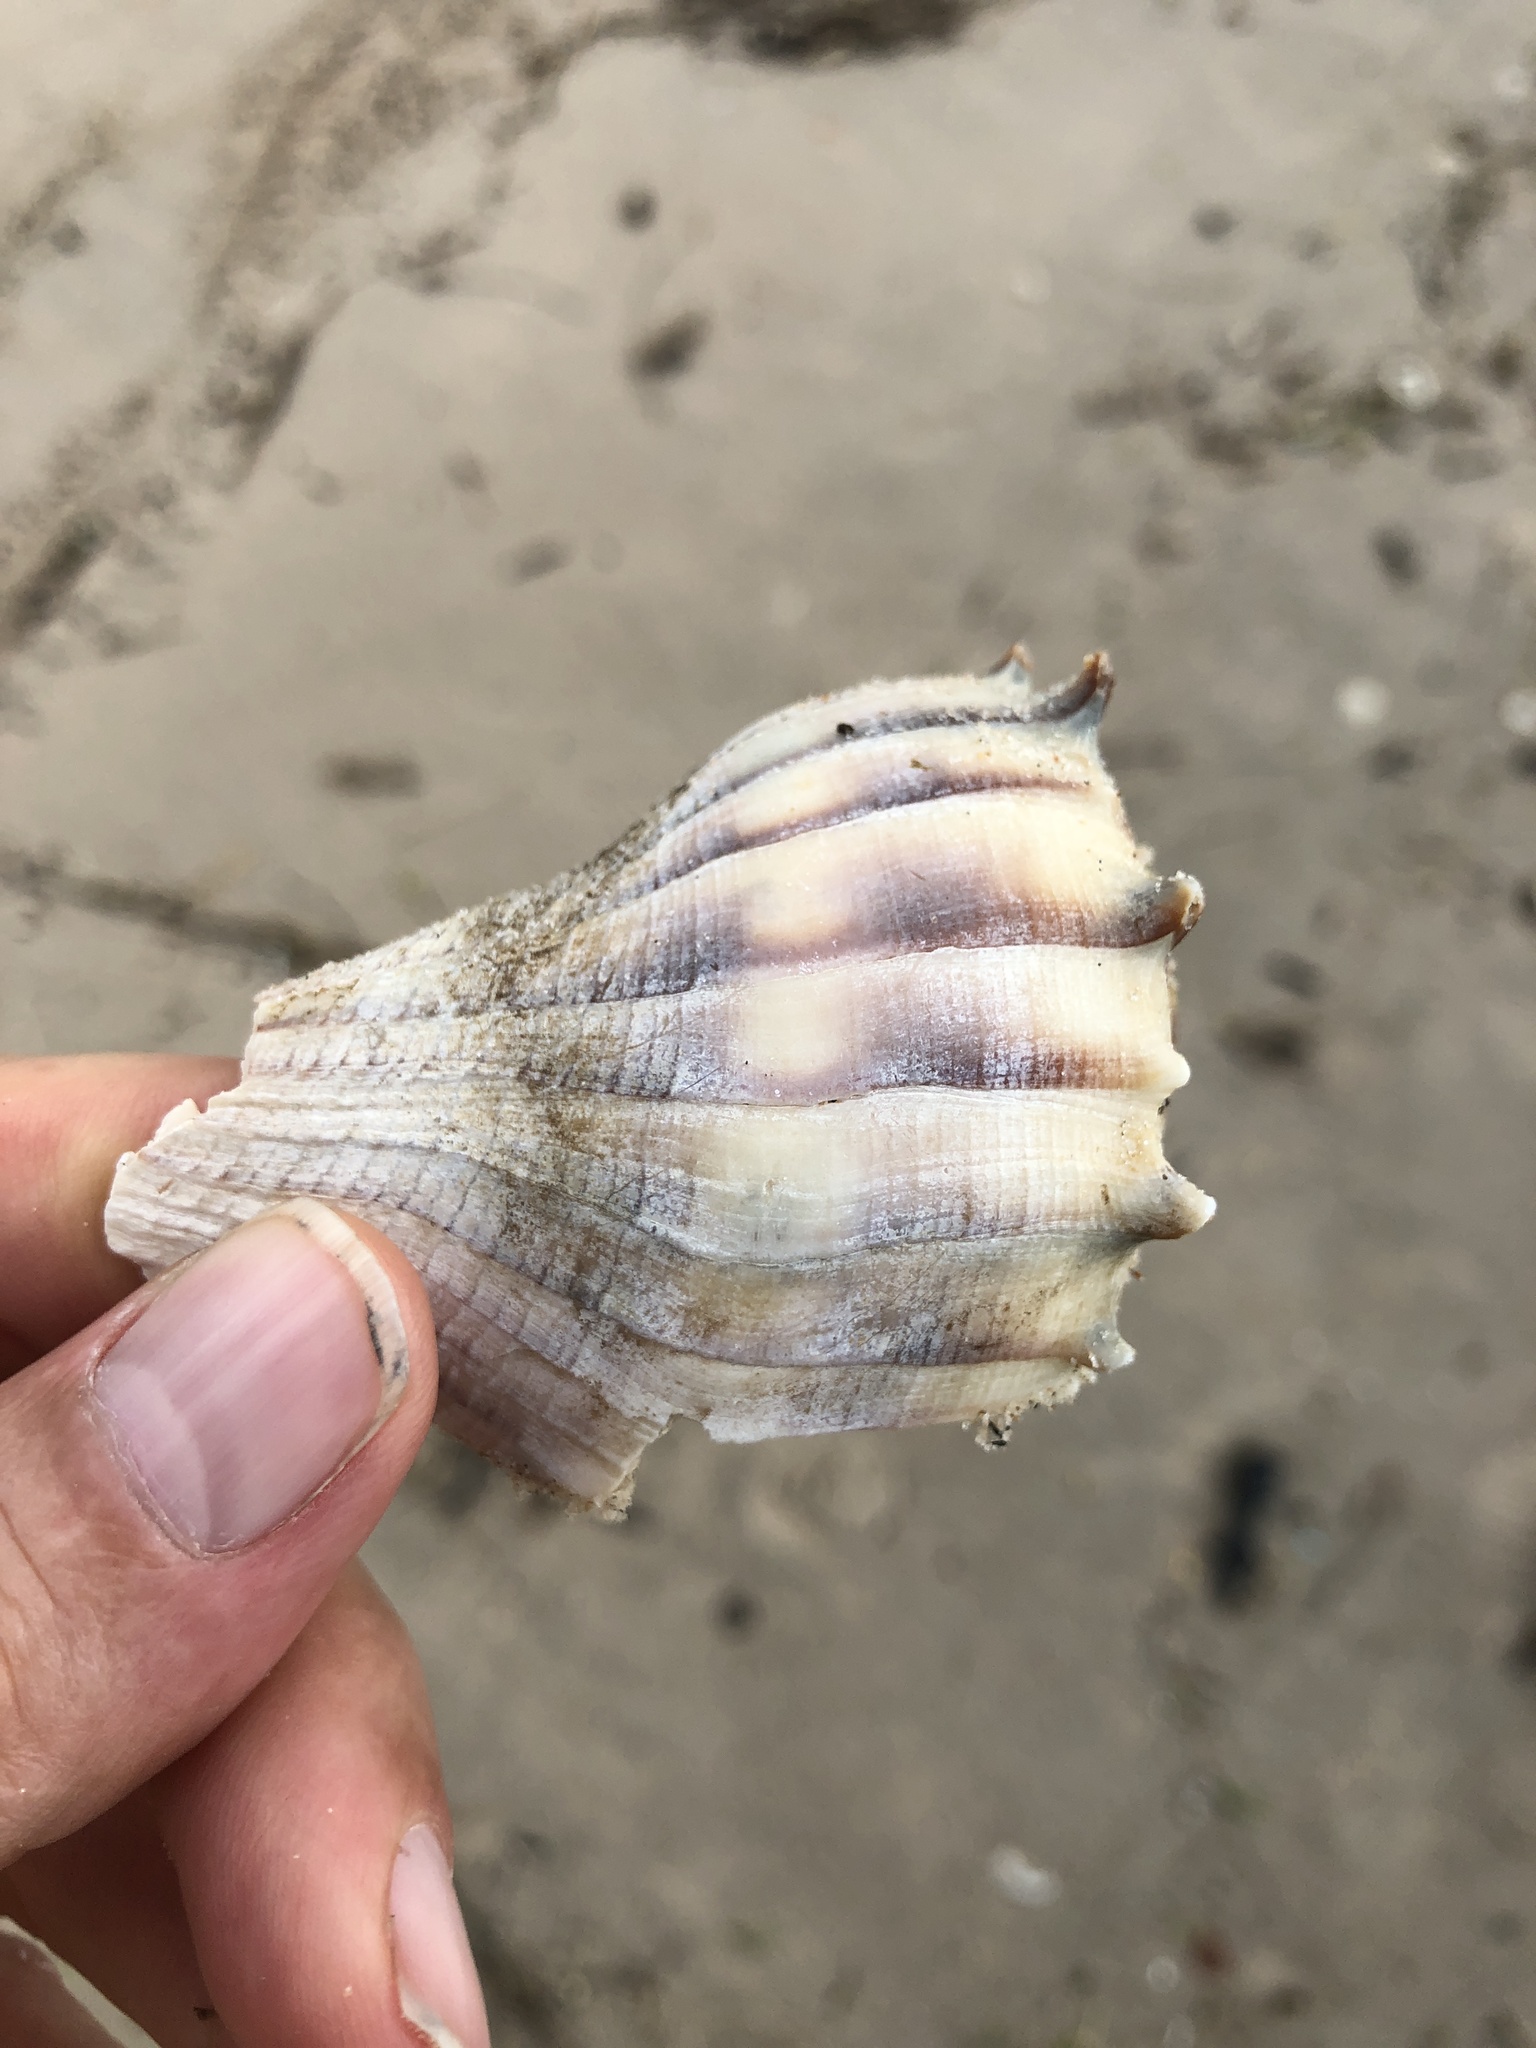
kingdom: Animalia
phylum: Mollusca
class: Gastropoda
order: Neogastropoda
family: Busyconidae
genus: Sinistrofulgur
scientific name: Sinistrofulgur pulleyi
